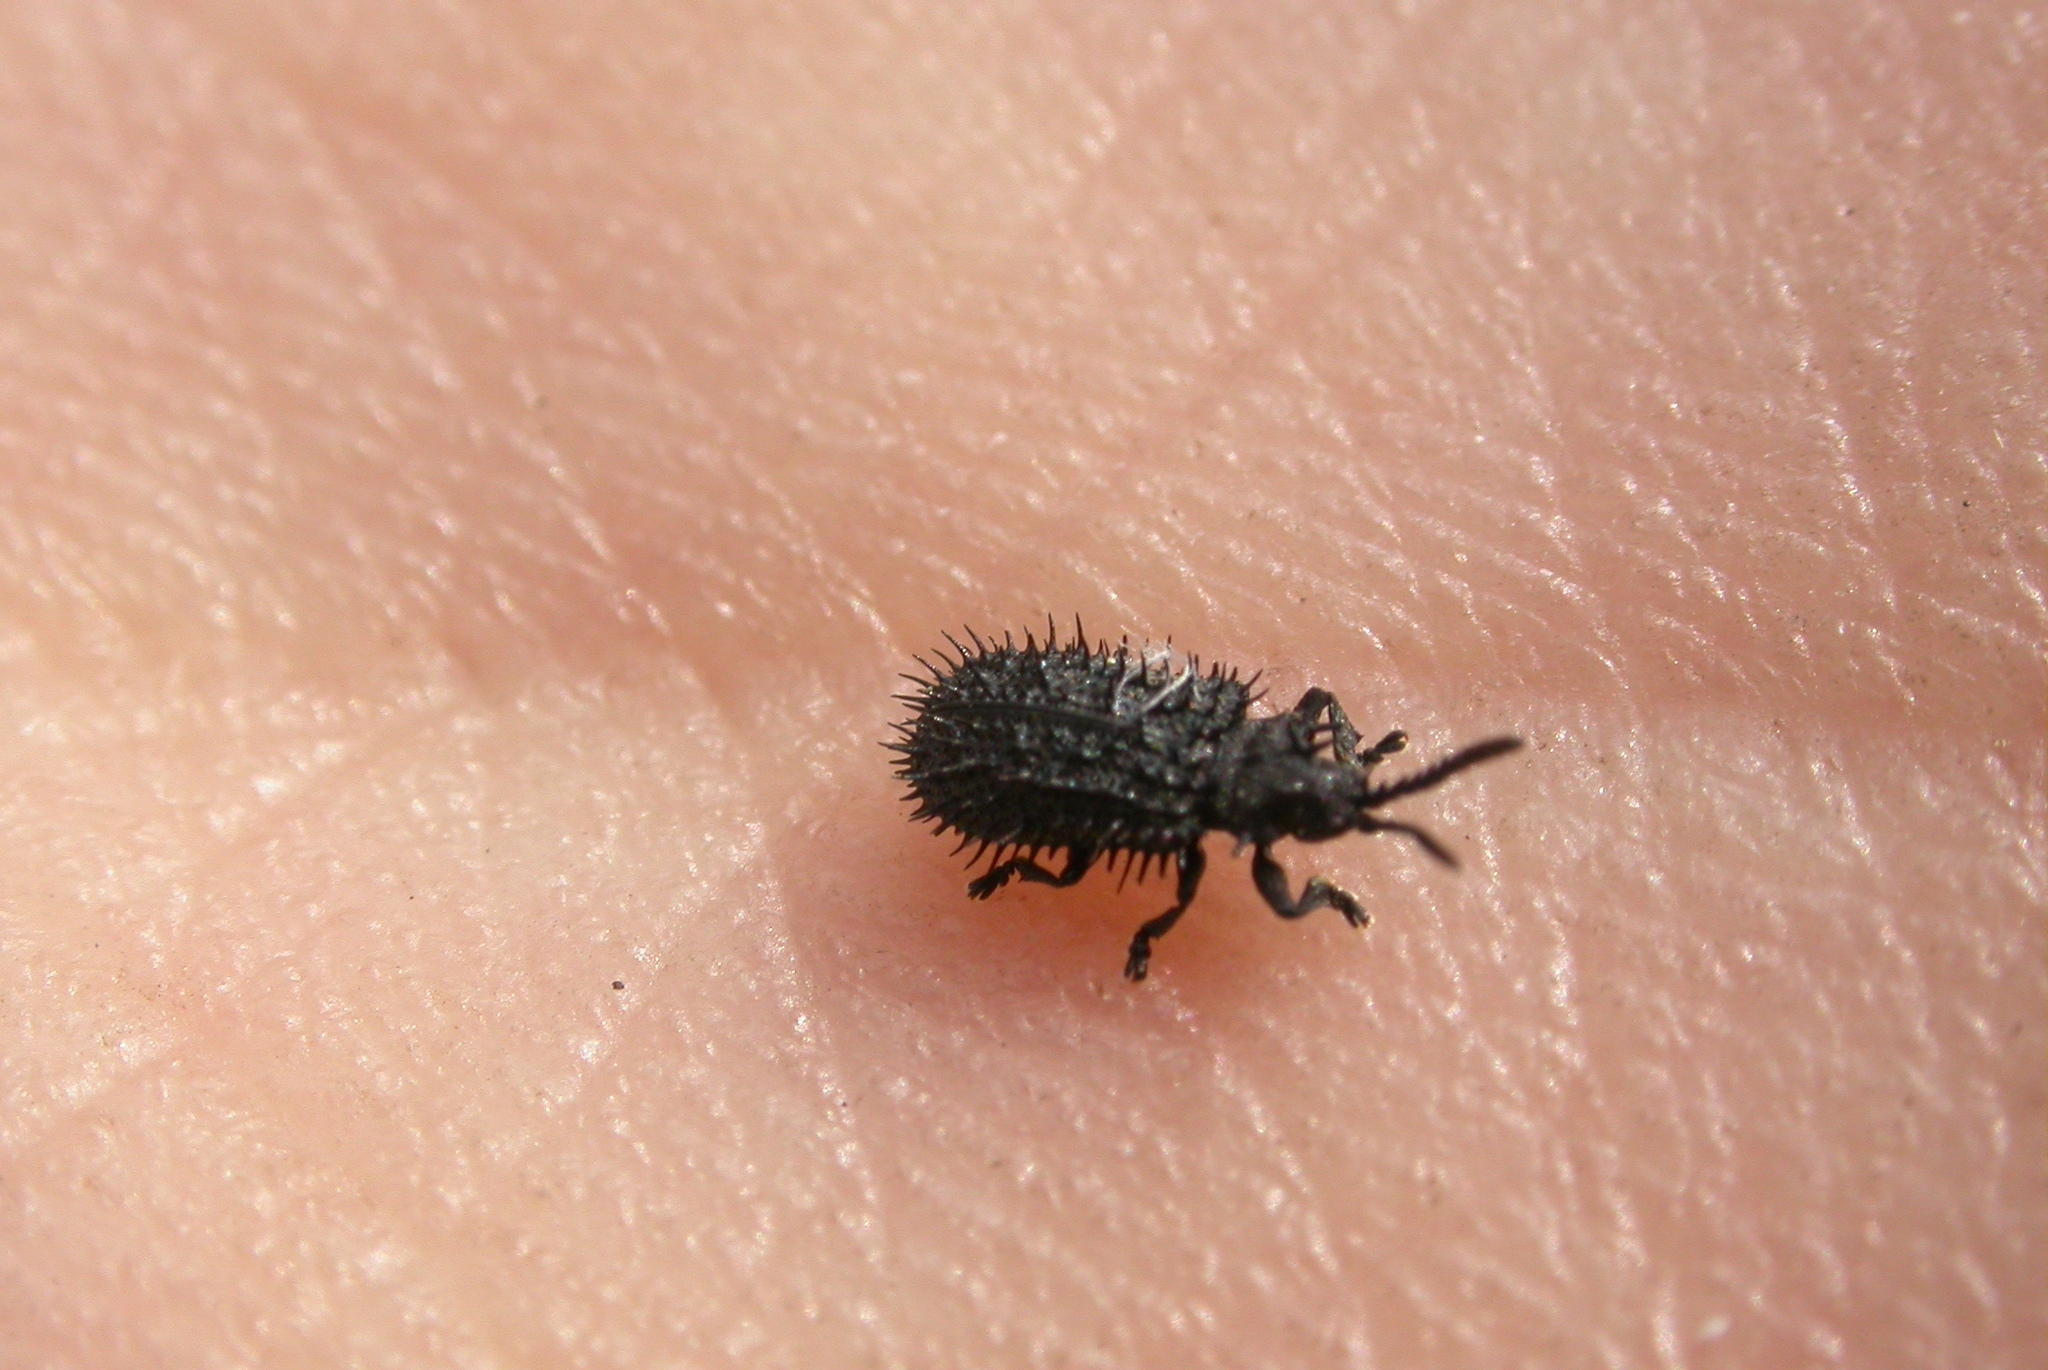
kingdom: Animalia
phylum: Arthropoda
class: Insecta
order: Coleoptera
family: Chrysomelidae
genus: Hispa
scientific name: Hispa atra
